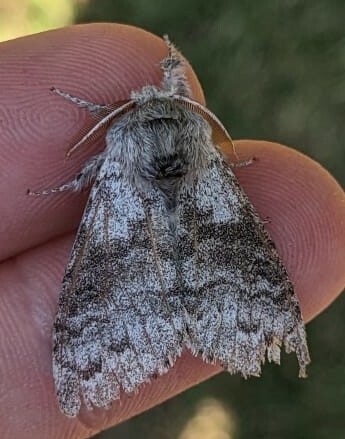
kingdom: Animalia
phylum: Arthropoda
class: Insecta
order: Lepidoptera
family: Erebidae
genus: Calliteara
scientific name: Calliteara pudibunda
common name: Pale tussock
